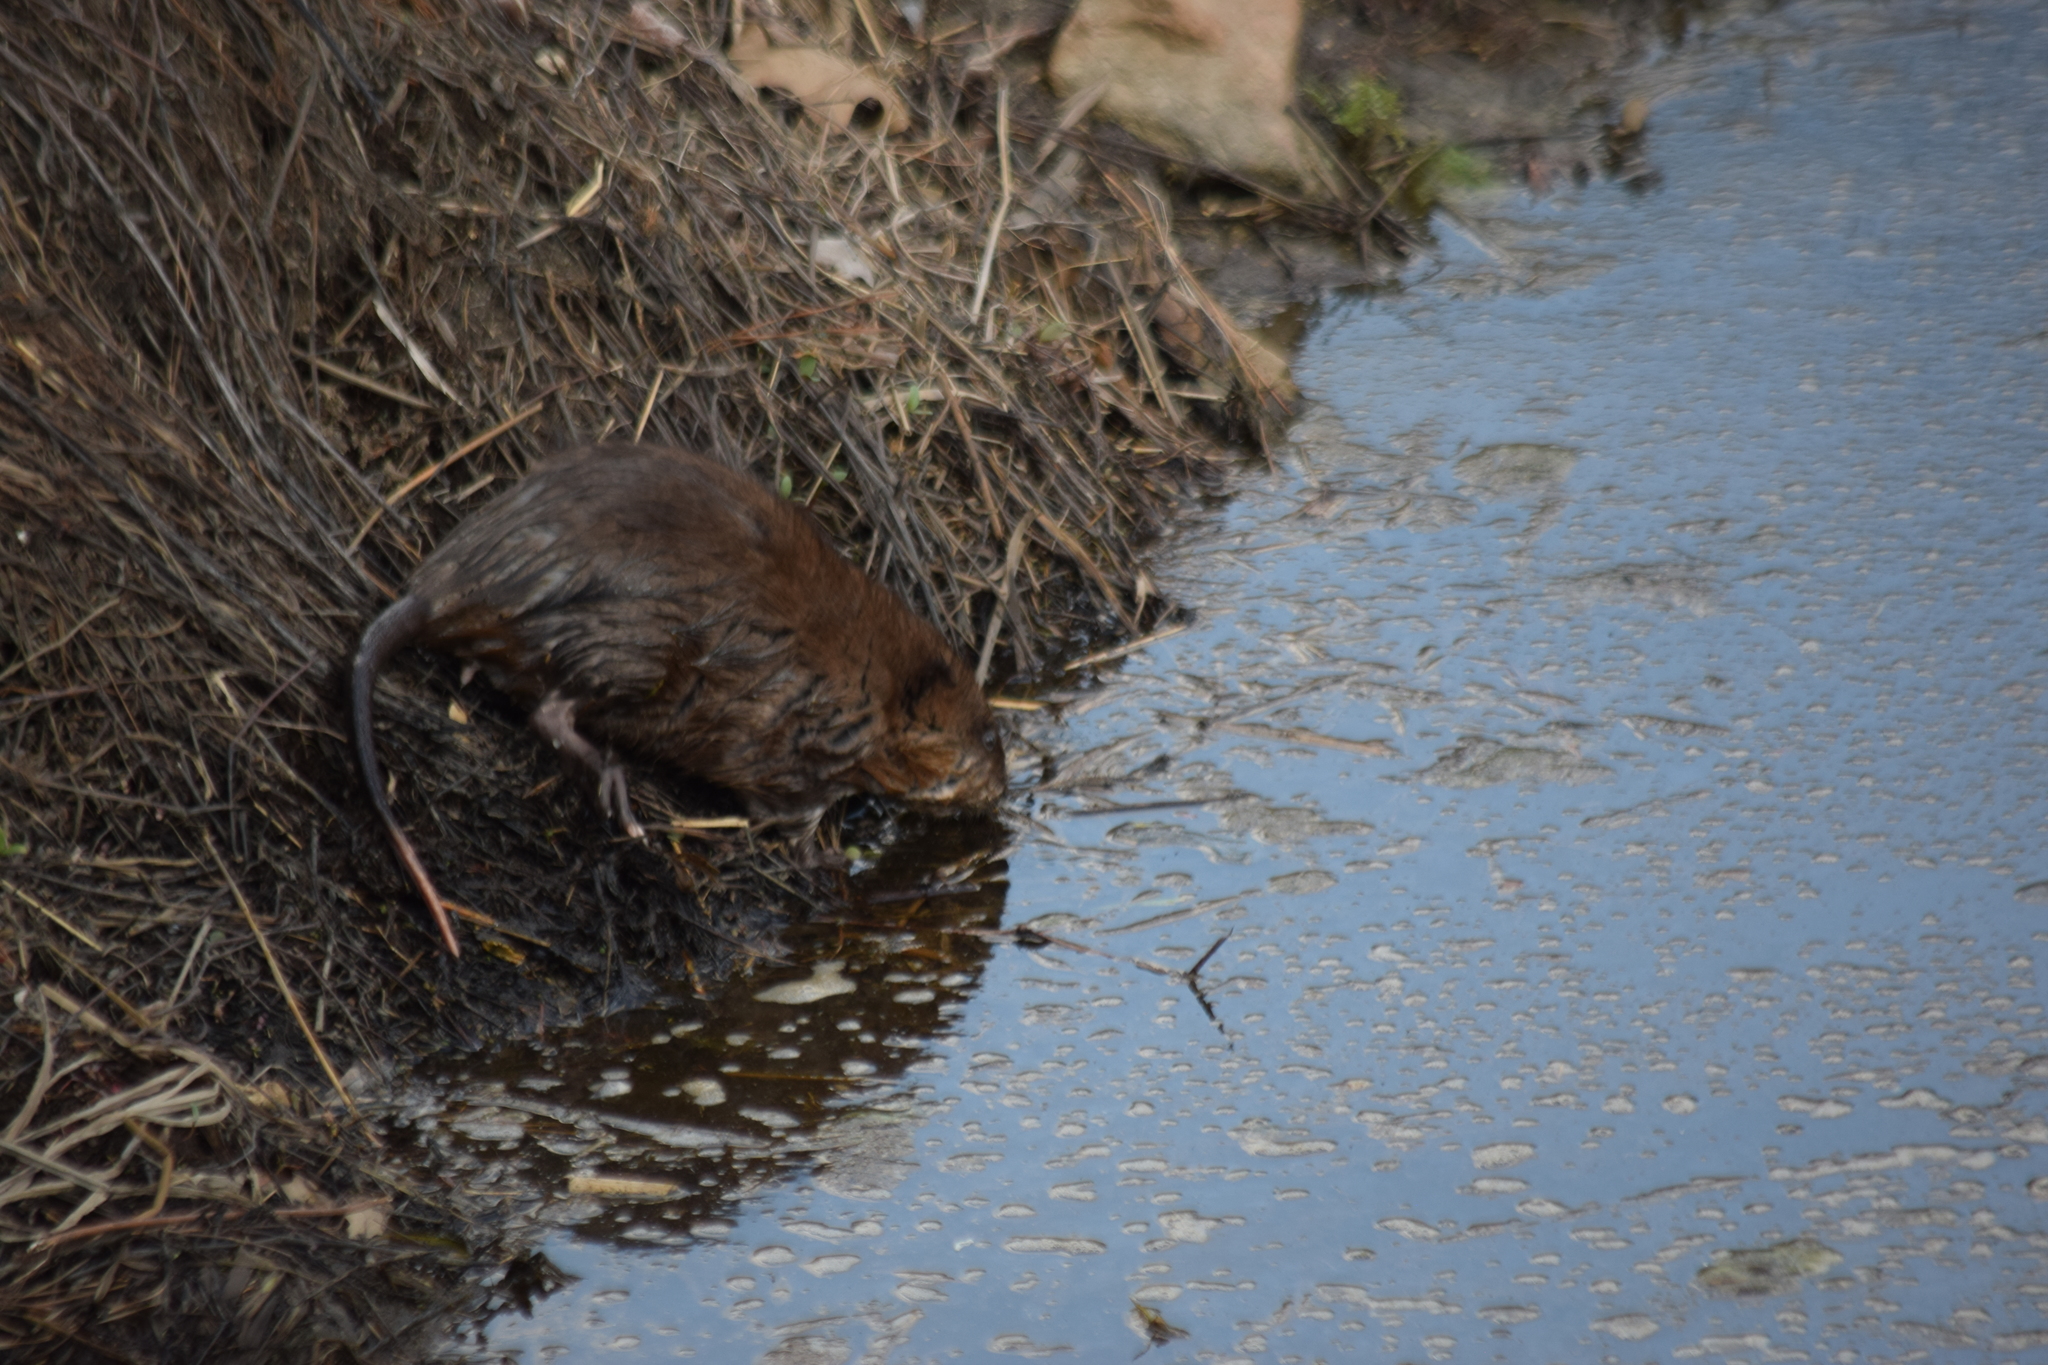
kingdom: Animalia
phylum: Chordata
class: Mammalia
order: Rodentia
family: Cricetidae
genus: Ondatra
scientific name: Ondatra zibethicus
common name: Muskrat
